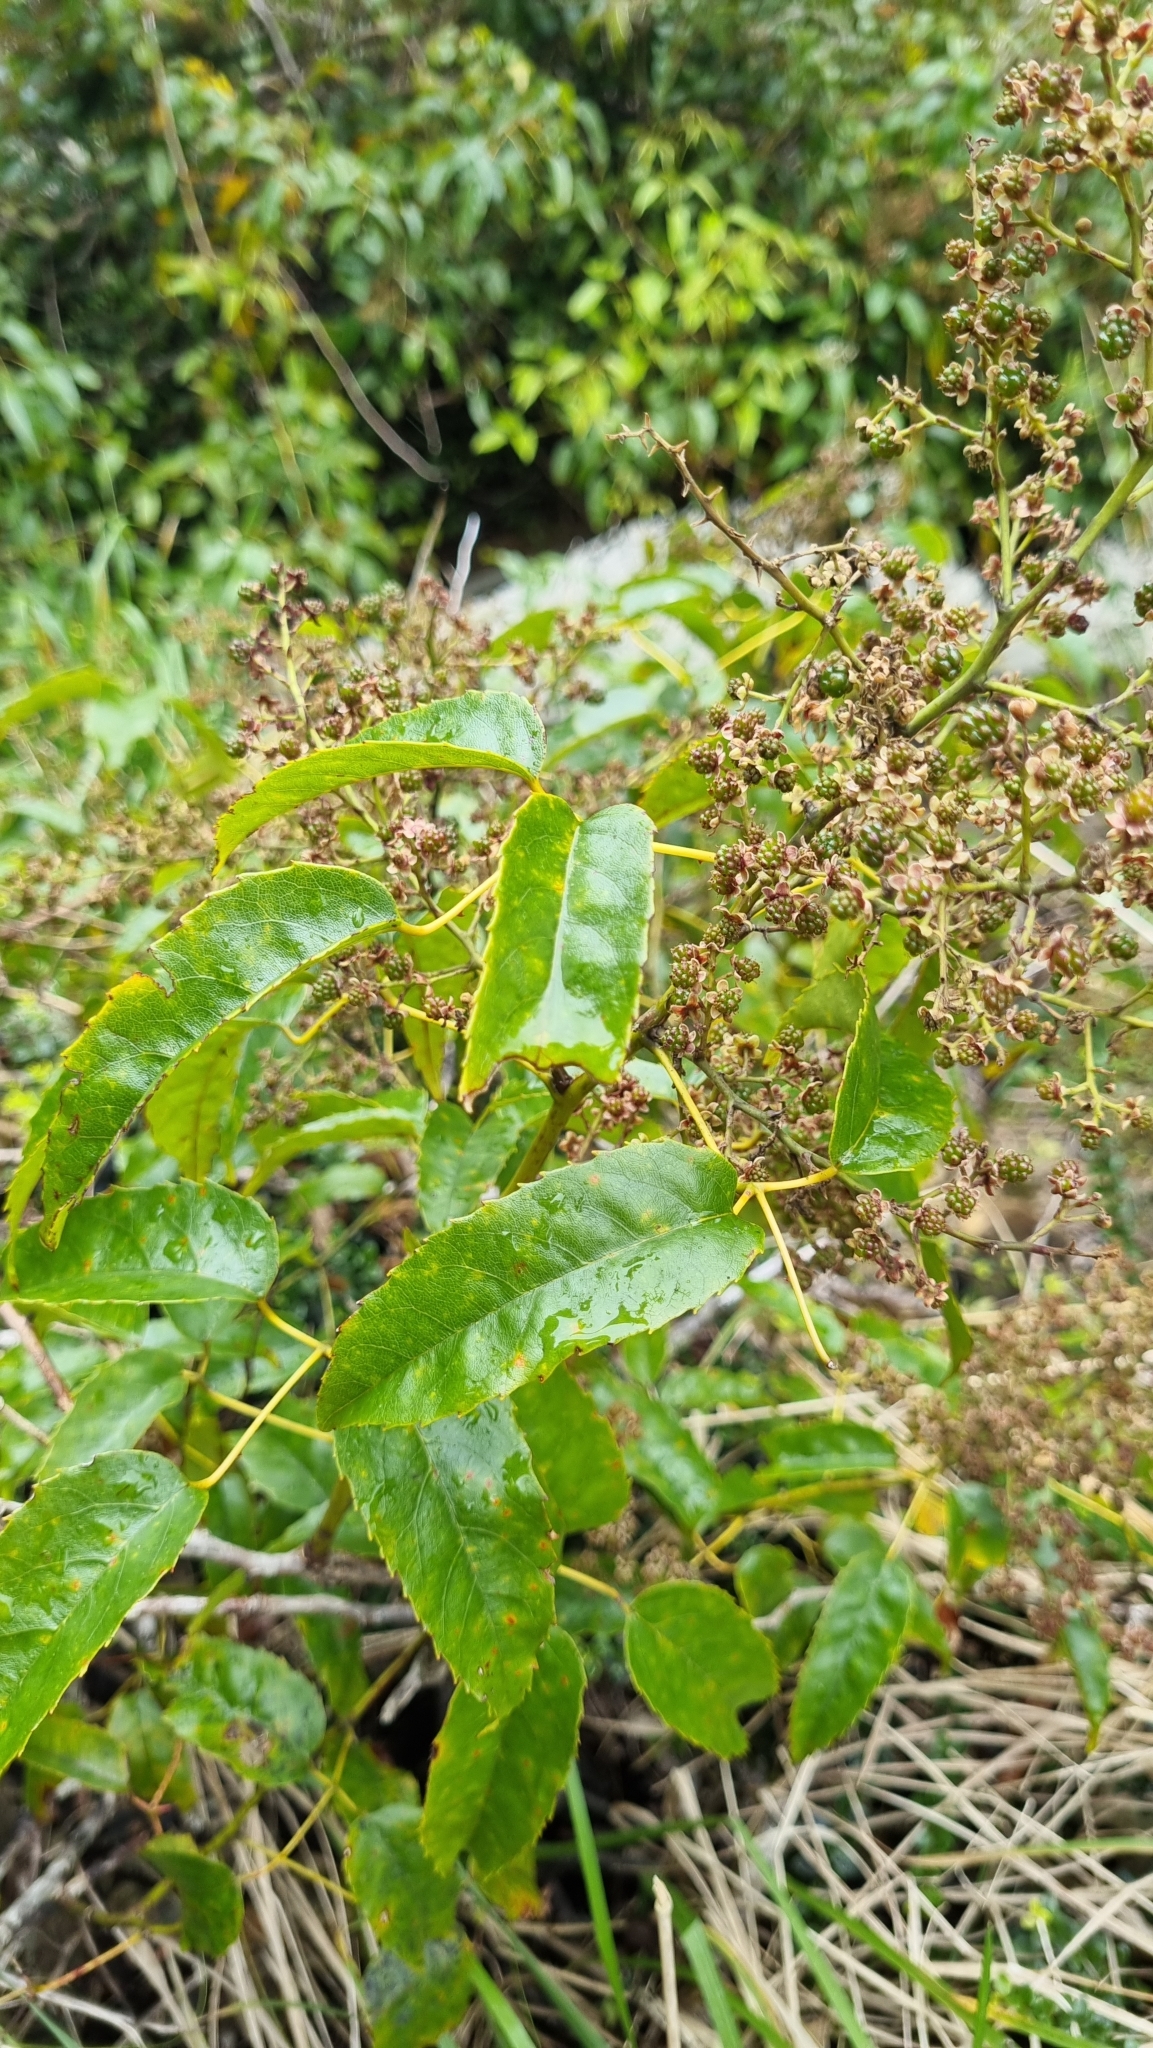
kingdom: Plantae
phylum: Tracheophyta
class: Magnoliopsida
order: Rosales
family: Rosaceae
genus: Rubus
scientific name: Rubus cissoides
